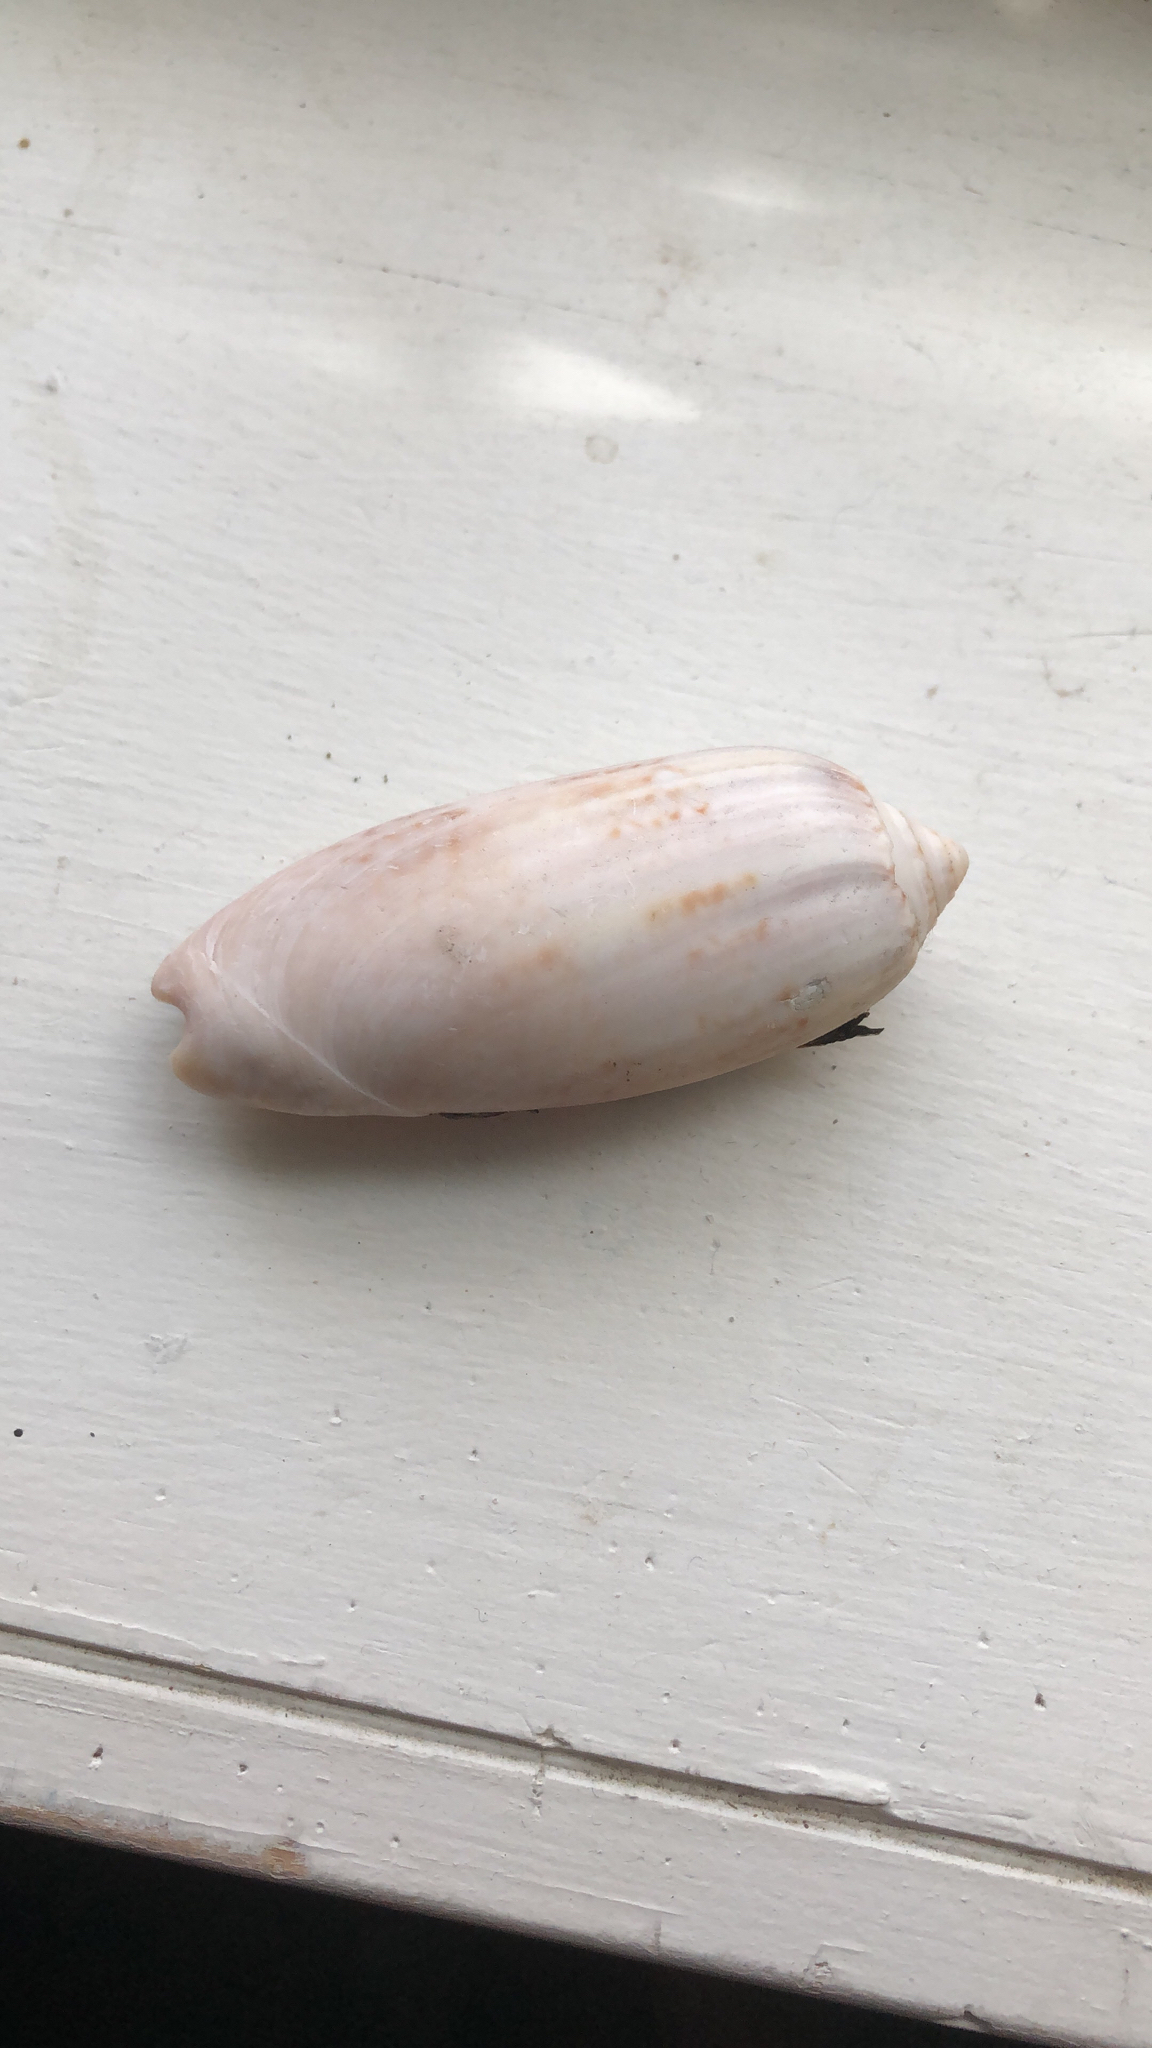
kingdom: Animalia
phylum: Mollusca
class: Gastropoda
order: Neogastropoda
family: Olividae
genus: Oliva
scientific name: Oliva sayana
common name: Lettered olive
